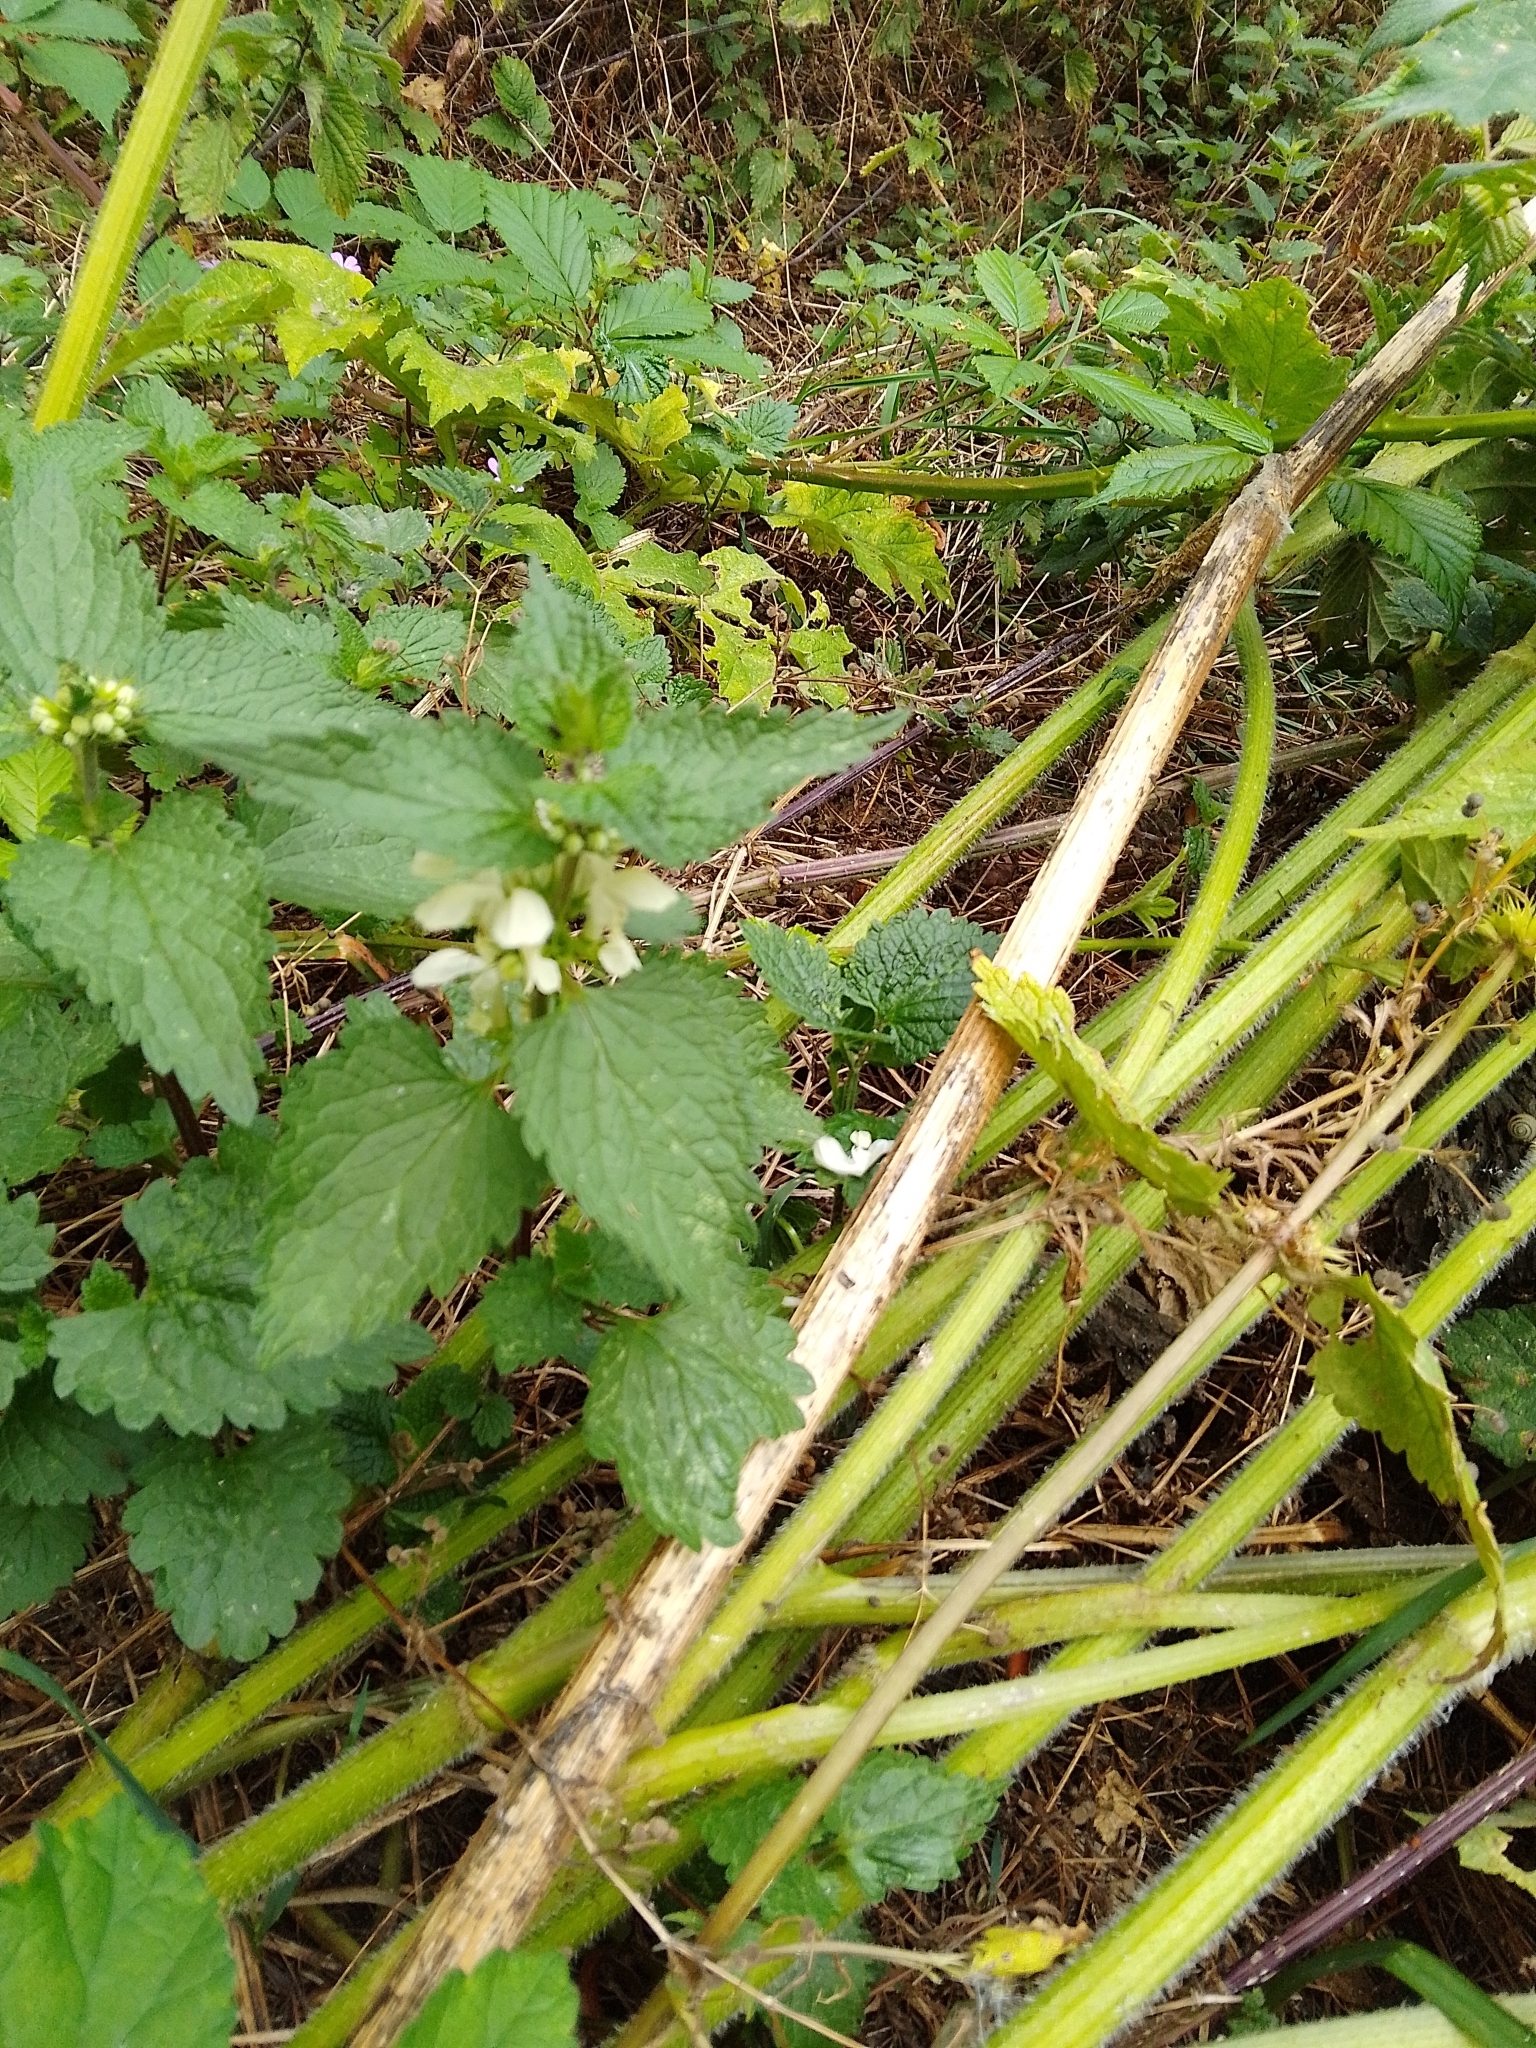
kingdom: Plantae
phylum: Tracheophyta
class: Magnoliopsida
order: Lamiales
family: Lamiaceae
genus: Lamium
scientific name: Lamium album
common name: White dead-nettle
